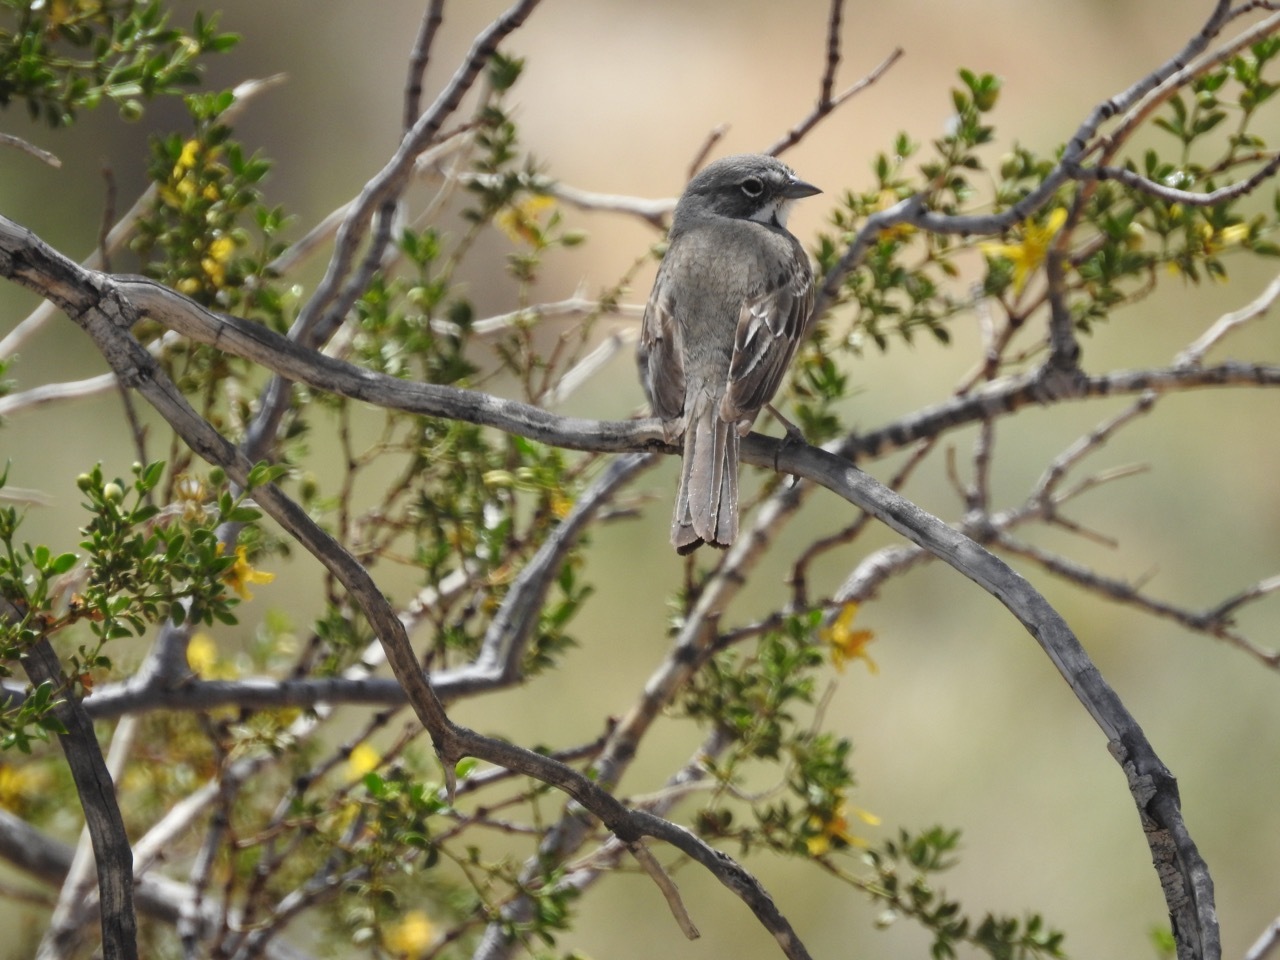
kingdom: Animalia
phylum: Chordata
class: Aves
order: Passeriformes
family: Passerellidae
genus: Artemisiospiza
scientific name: Artemisiospiza belli
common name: Bell's sparrow
